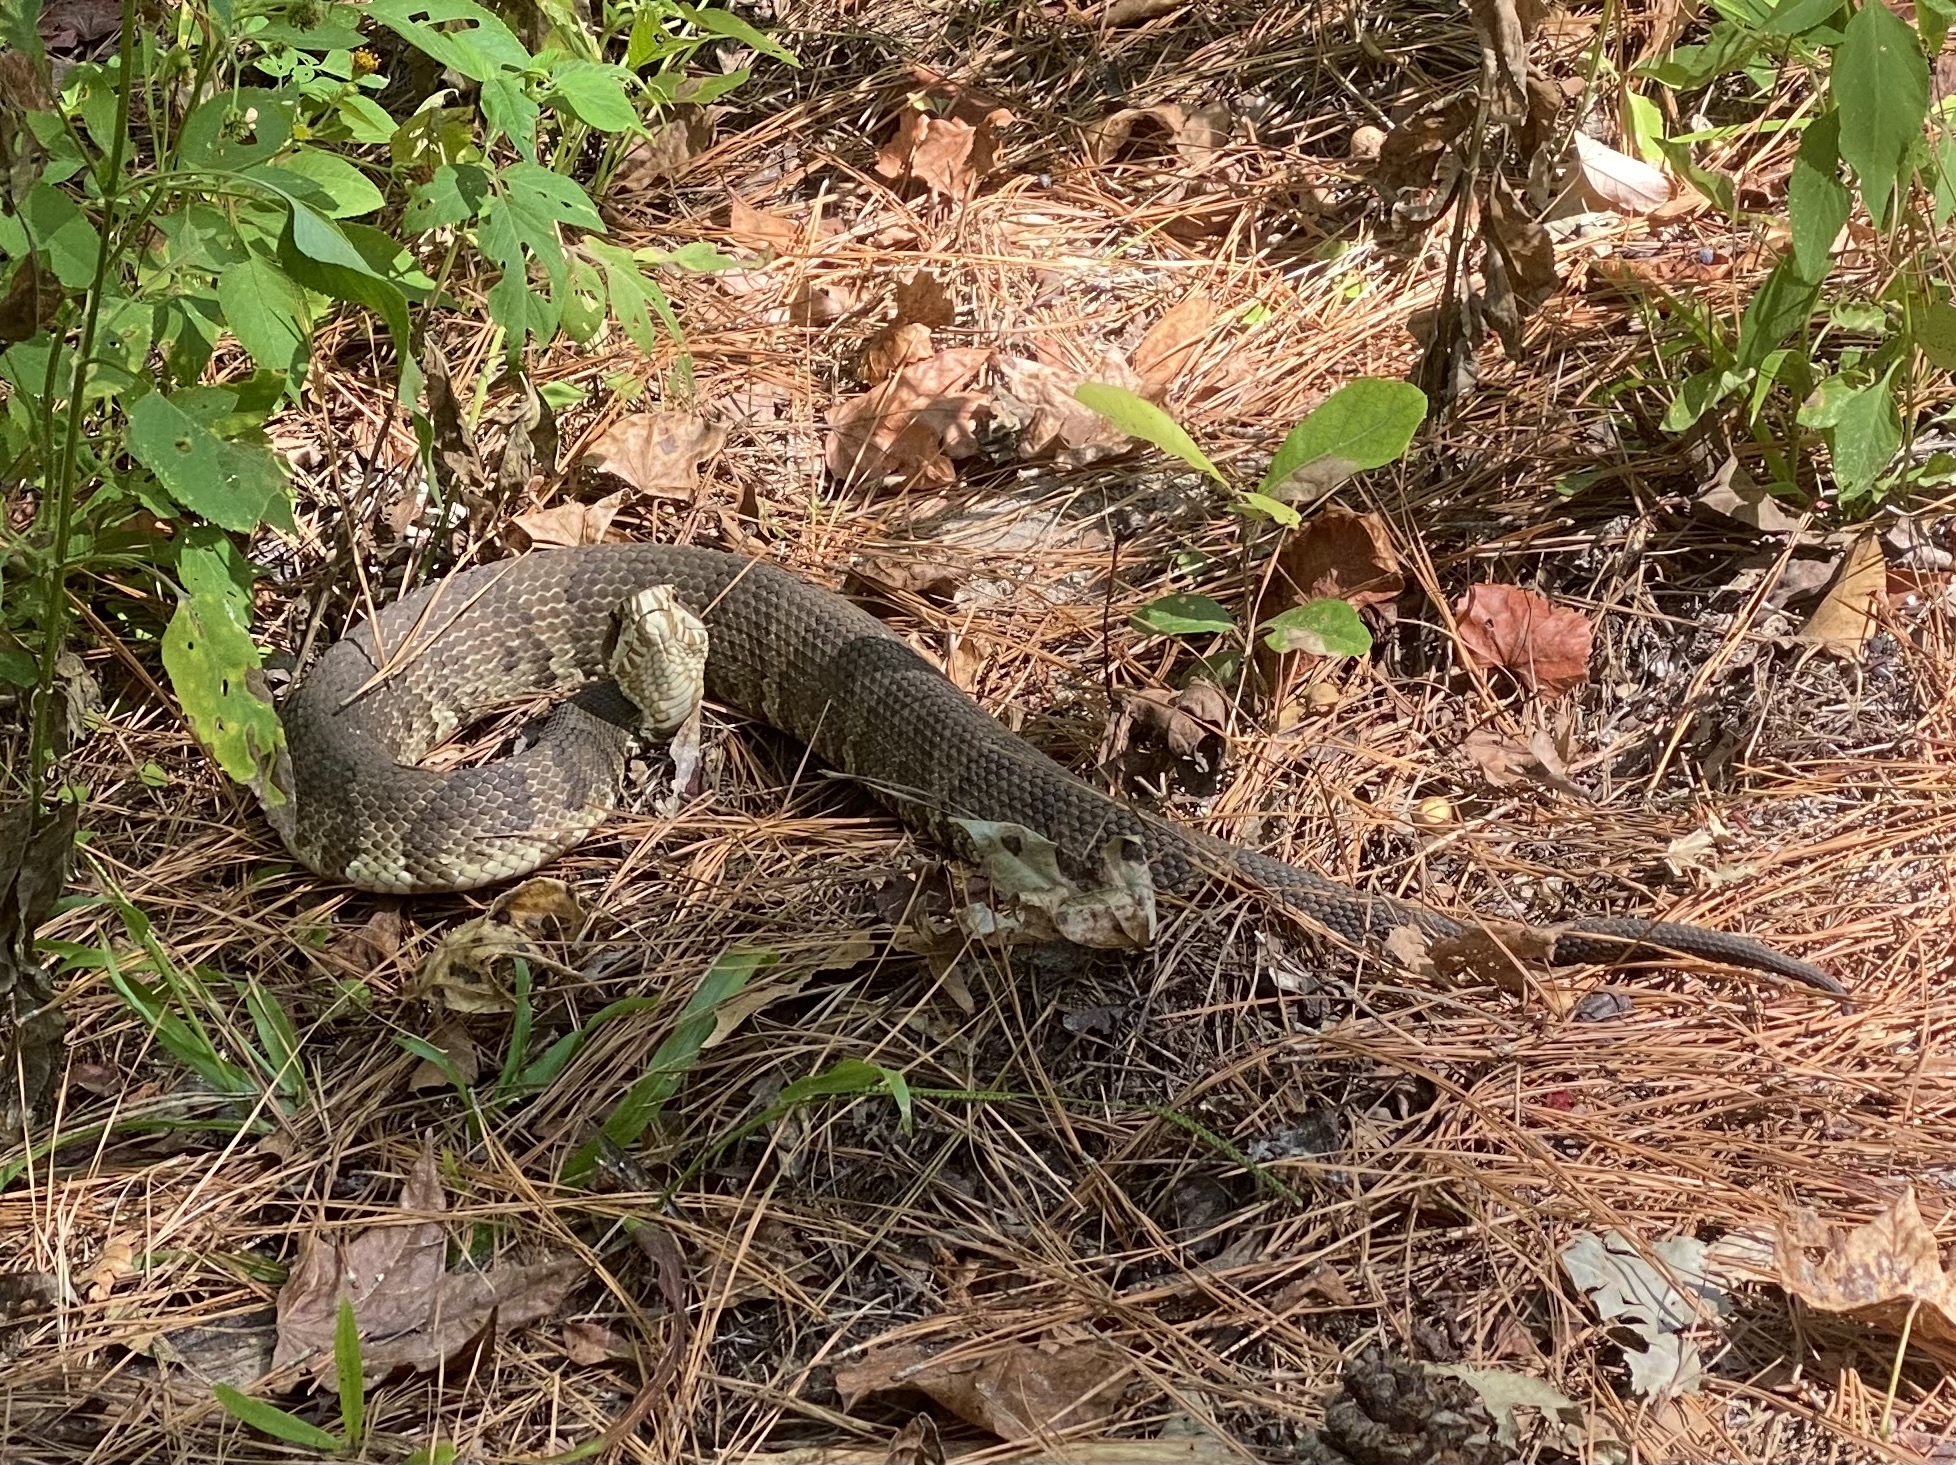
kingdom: Animalia
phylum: Chordata
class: Squamata
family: Viperidae
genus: Agkistrodon
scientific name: Agkistrodon conanti
